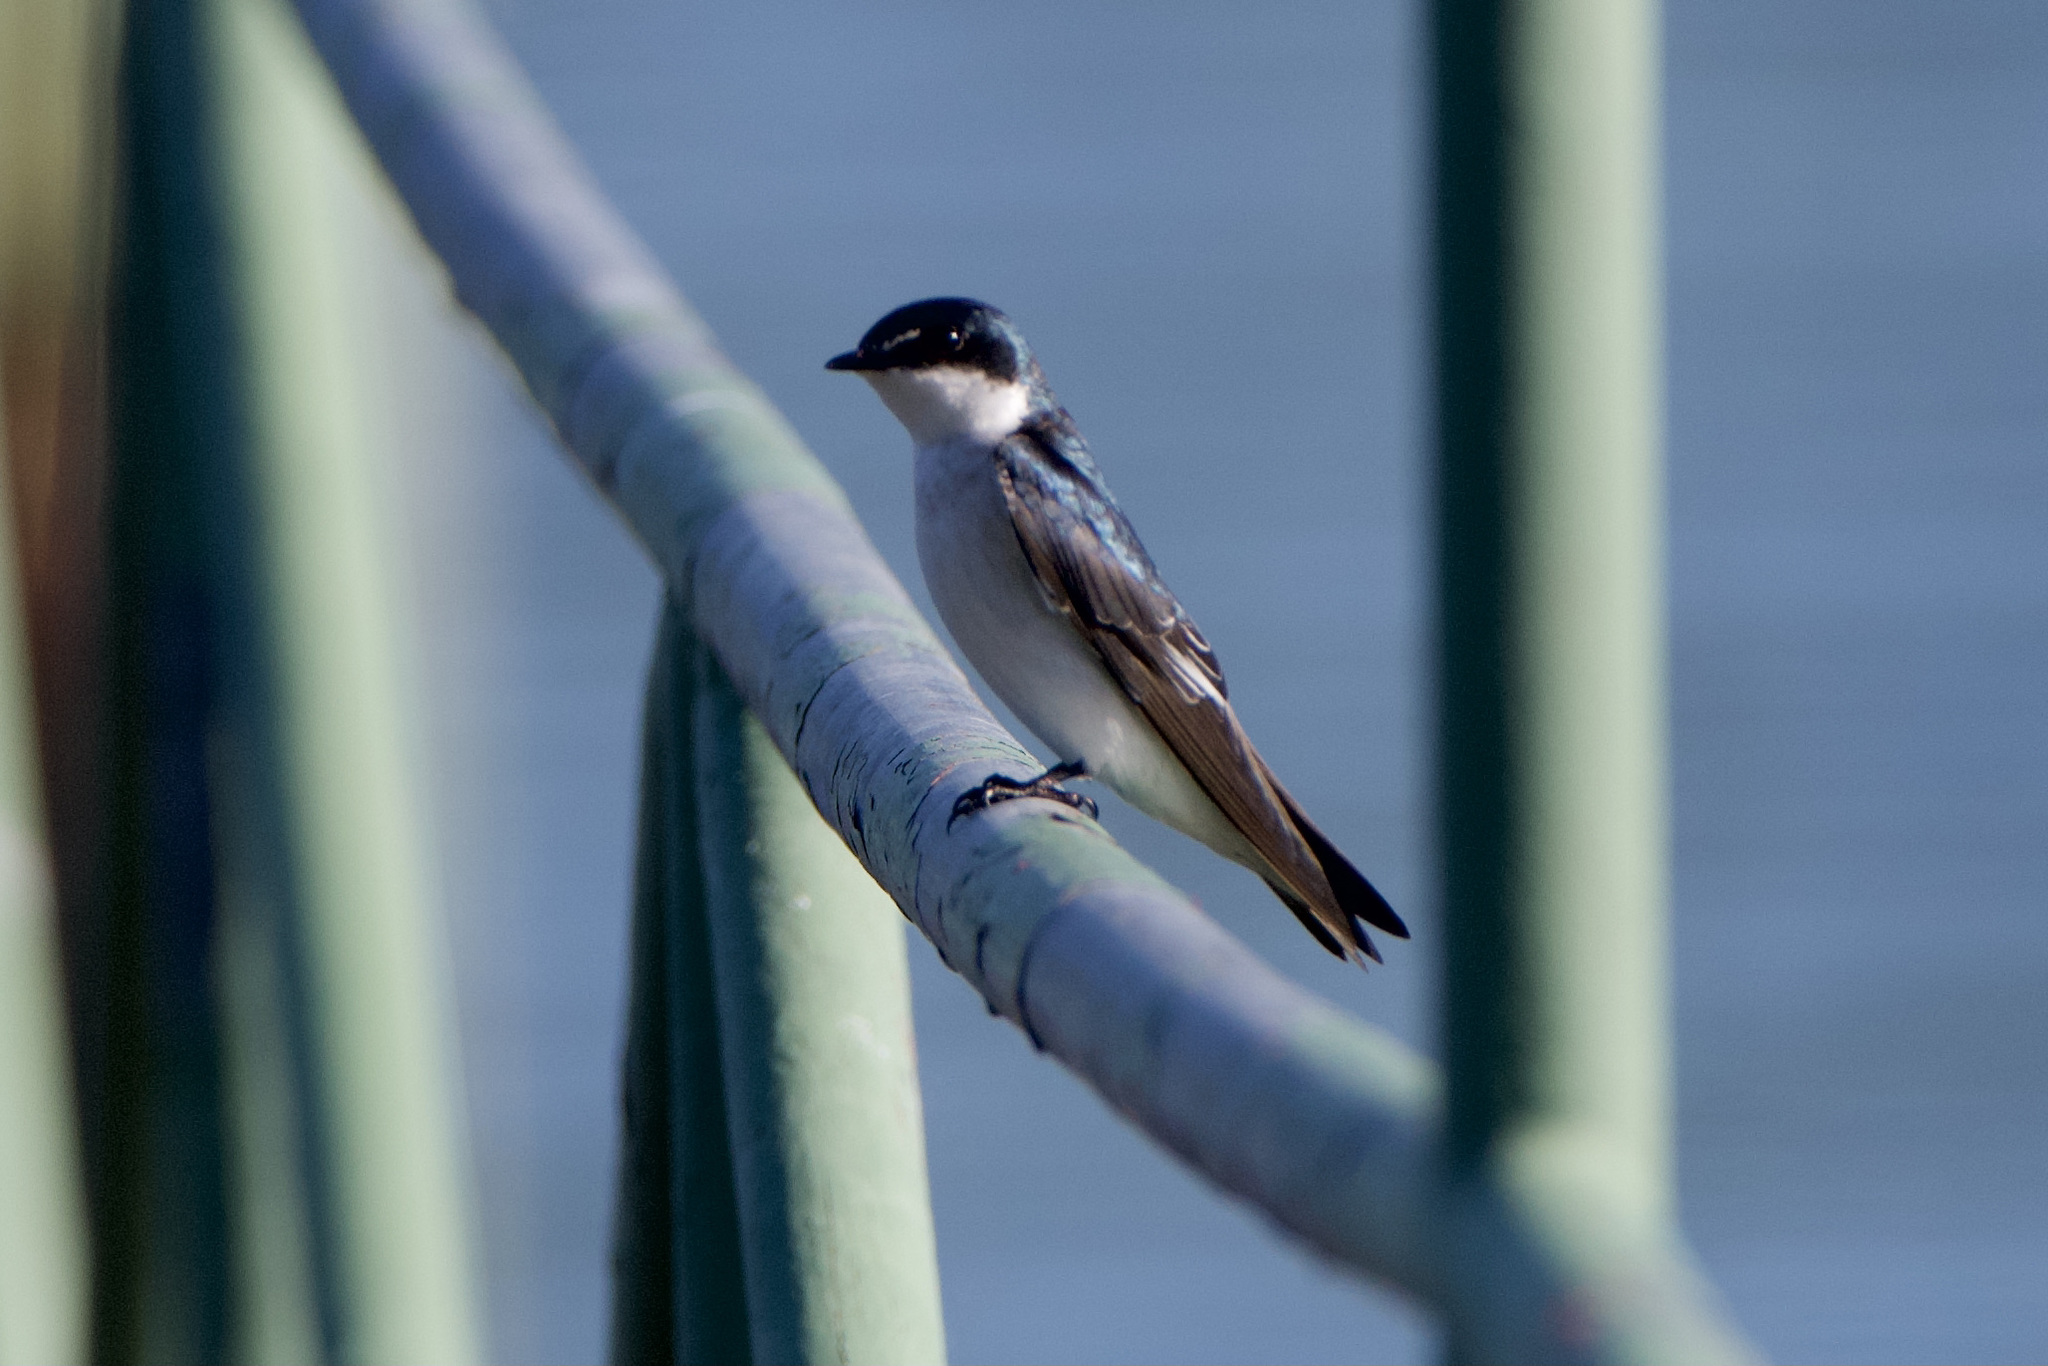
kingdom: Animalia
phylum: Chordata
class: Aves
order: Passeriformes
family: Hirundinidae
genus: Tachycineta
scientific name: Tachycineta albilinea
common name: Mangrove swallow
